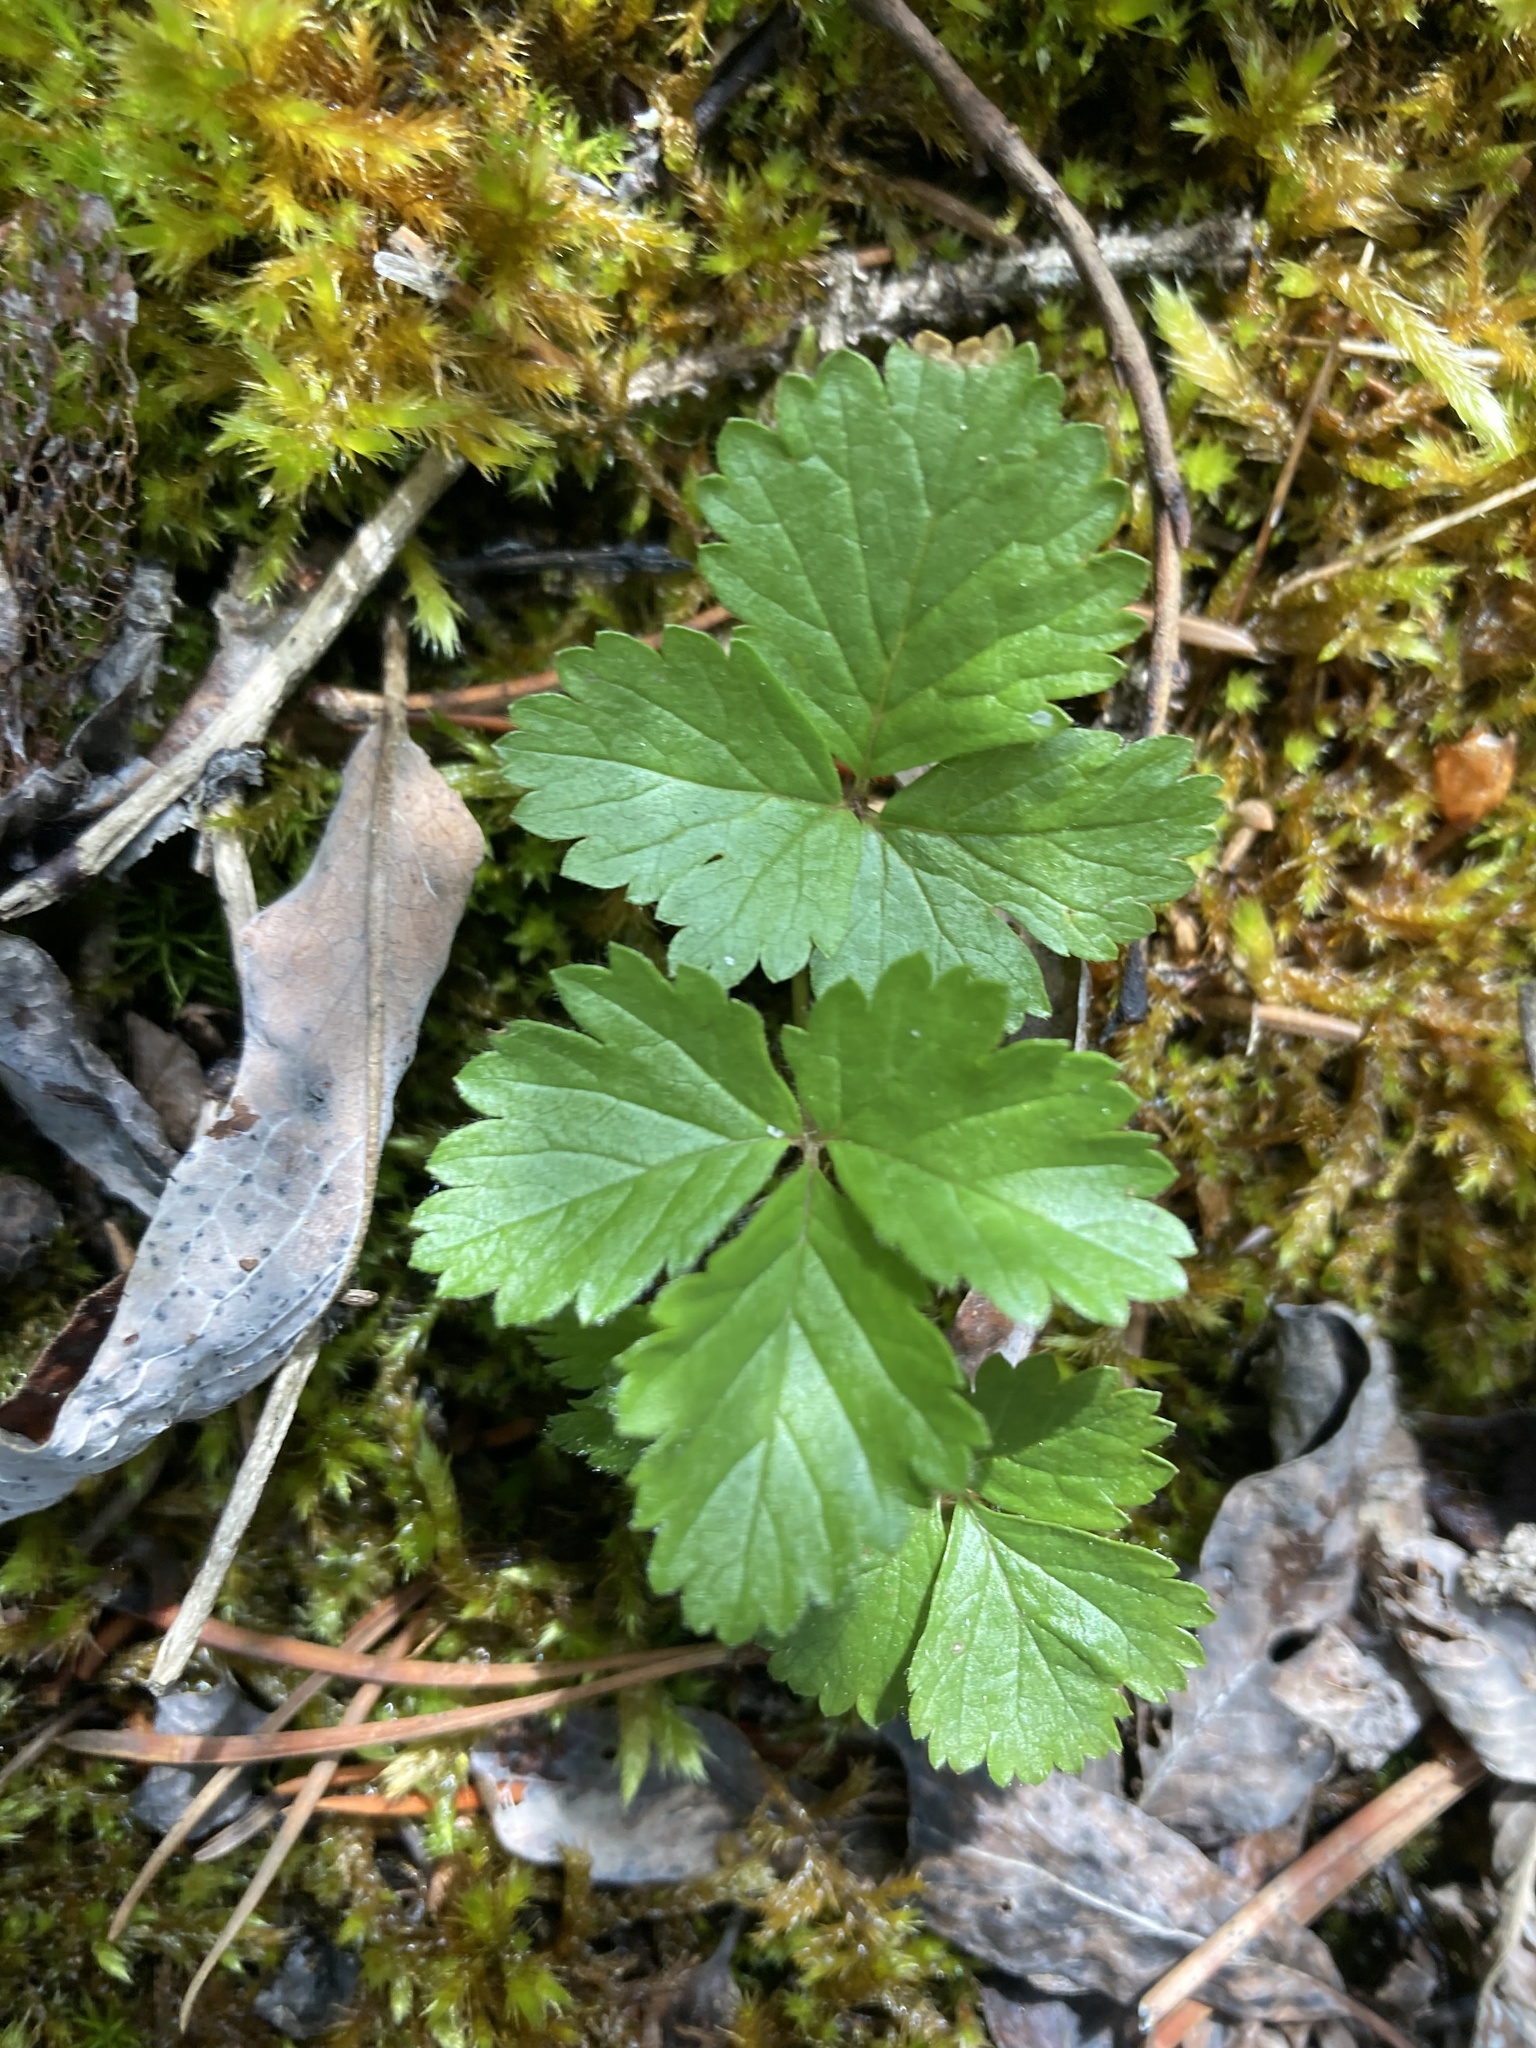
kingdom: Plantae
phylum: Tracheophyta
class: Magnoliopsida
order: Rosales
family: Rosaceae
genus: Rubus
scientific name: Rubus arcticus
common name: Arctic bramble
